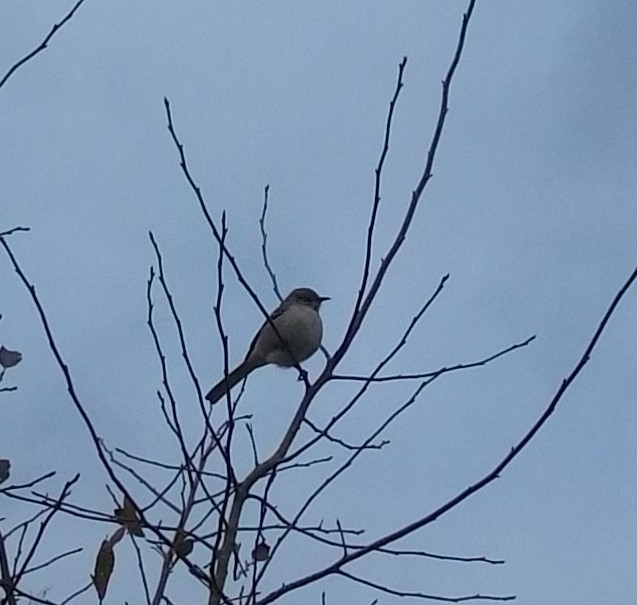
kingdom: Animalia
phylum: Chordata
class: Aves
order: Passeriformes
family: Mimidae
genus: Mimus
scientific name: Mimus polyglottos
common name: Northern mockingbird
